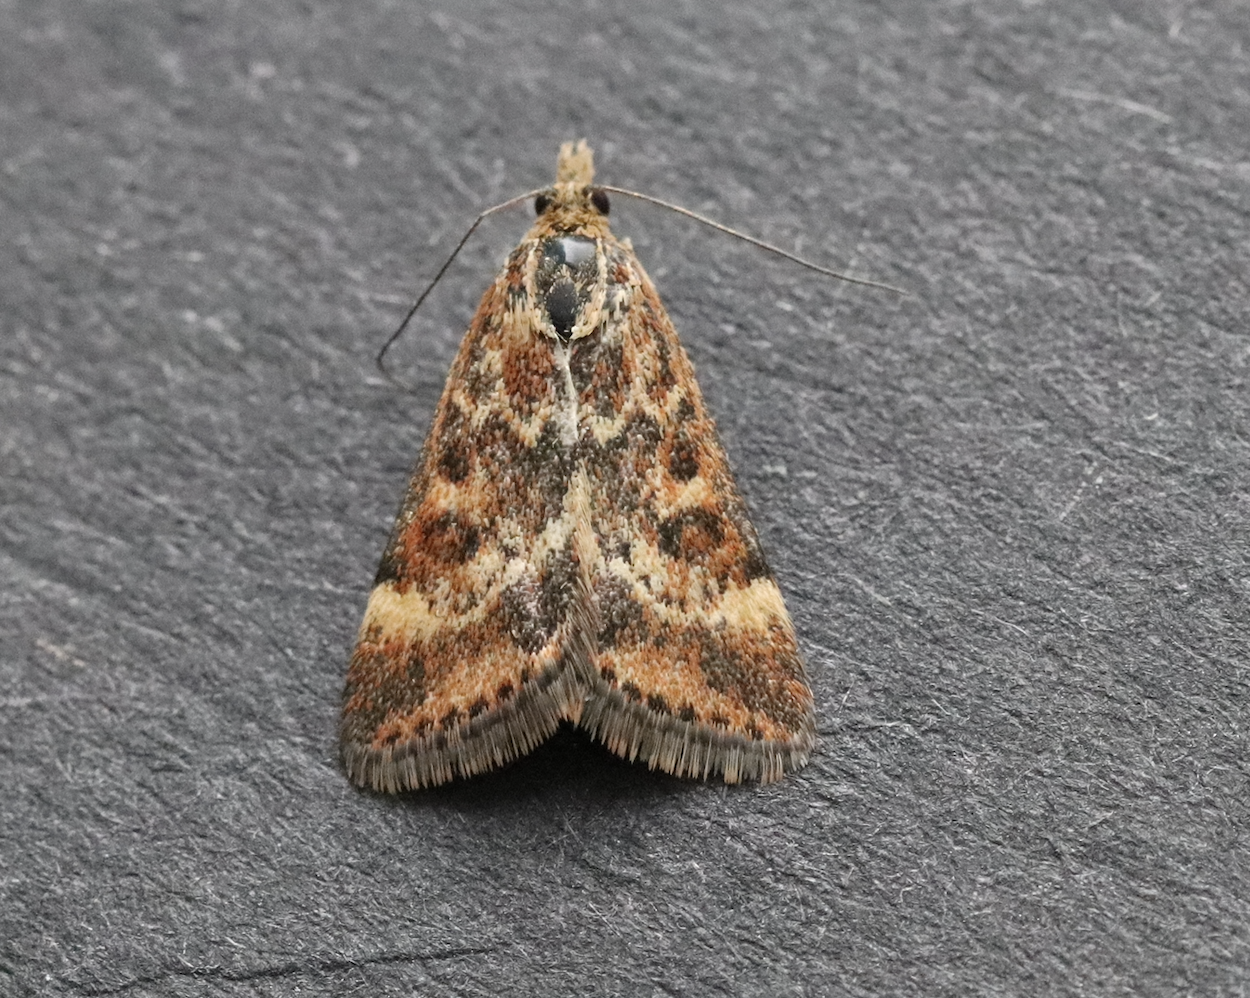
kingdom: Animalia
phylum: Arthropoda
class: Insecta
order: Lepidoptera
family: Crambidae
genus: Pyrausta
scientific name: Pyrausta despicata
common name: Straw-barred pearl
